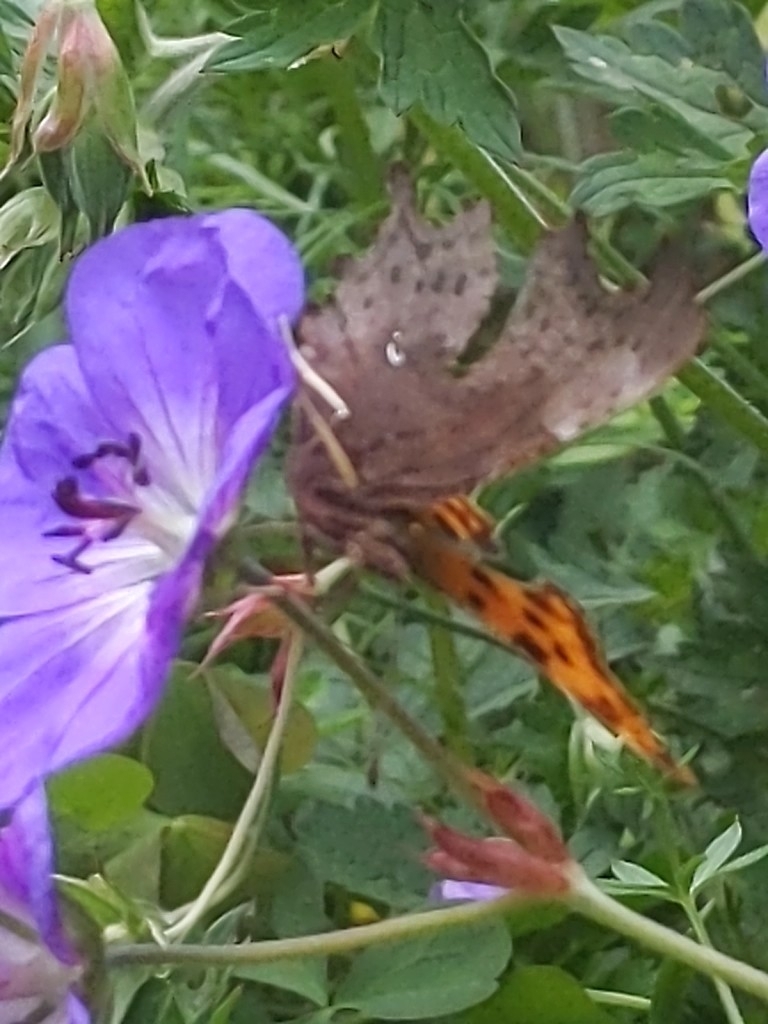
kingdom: Animalia
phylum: Arthropoda
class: Insecta
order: Lepidoptera
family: Nymphalidae
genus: Polygonia
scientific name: Polygonia c-album
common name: Comma
